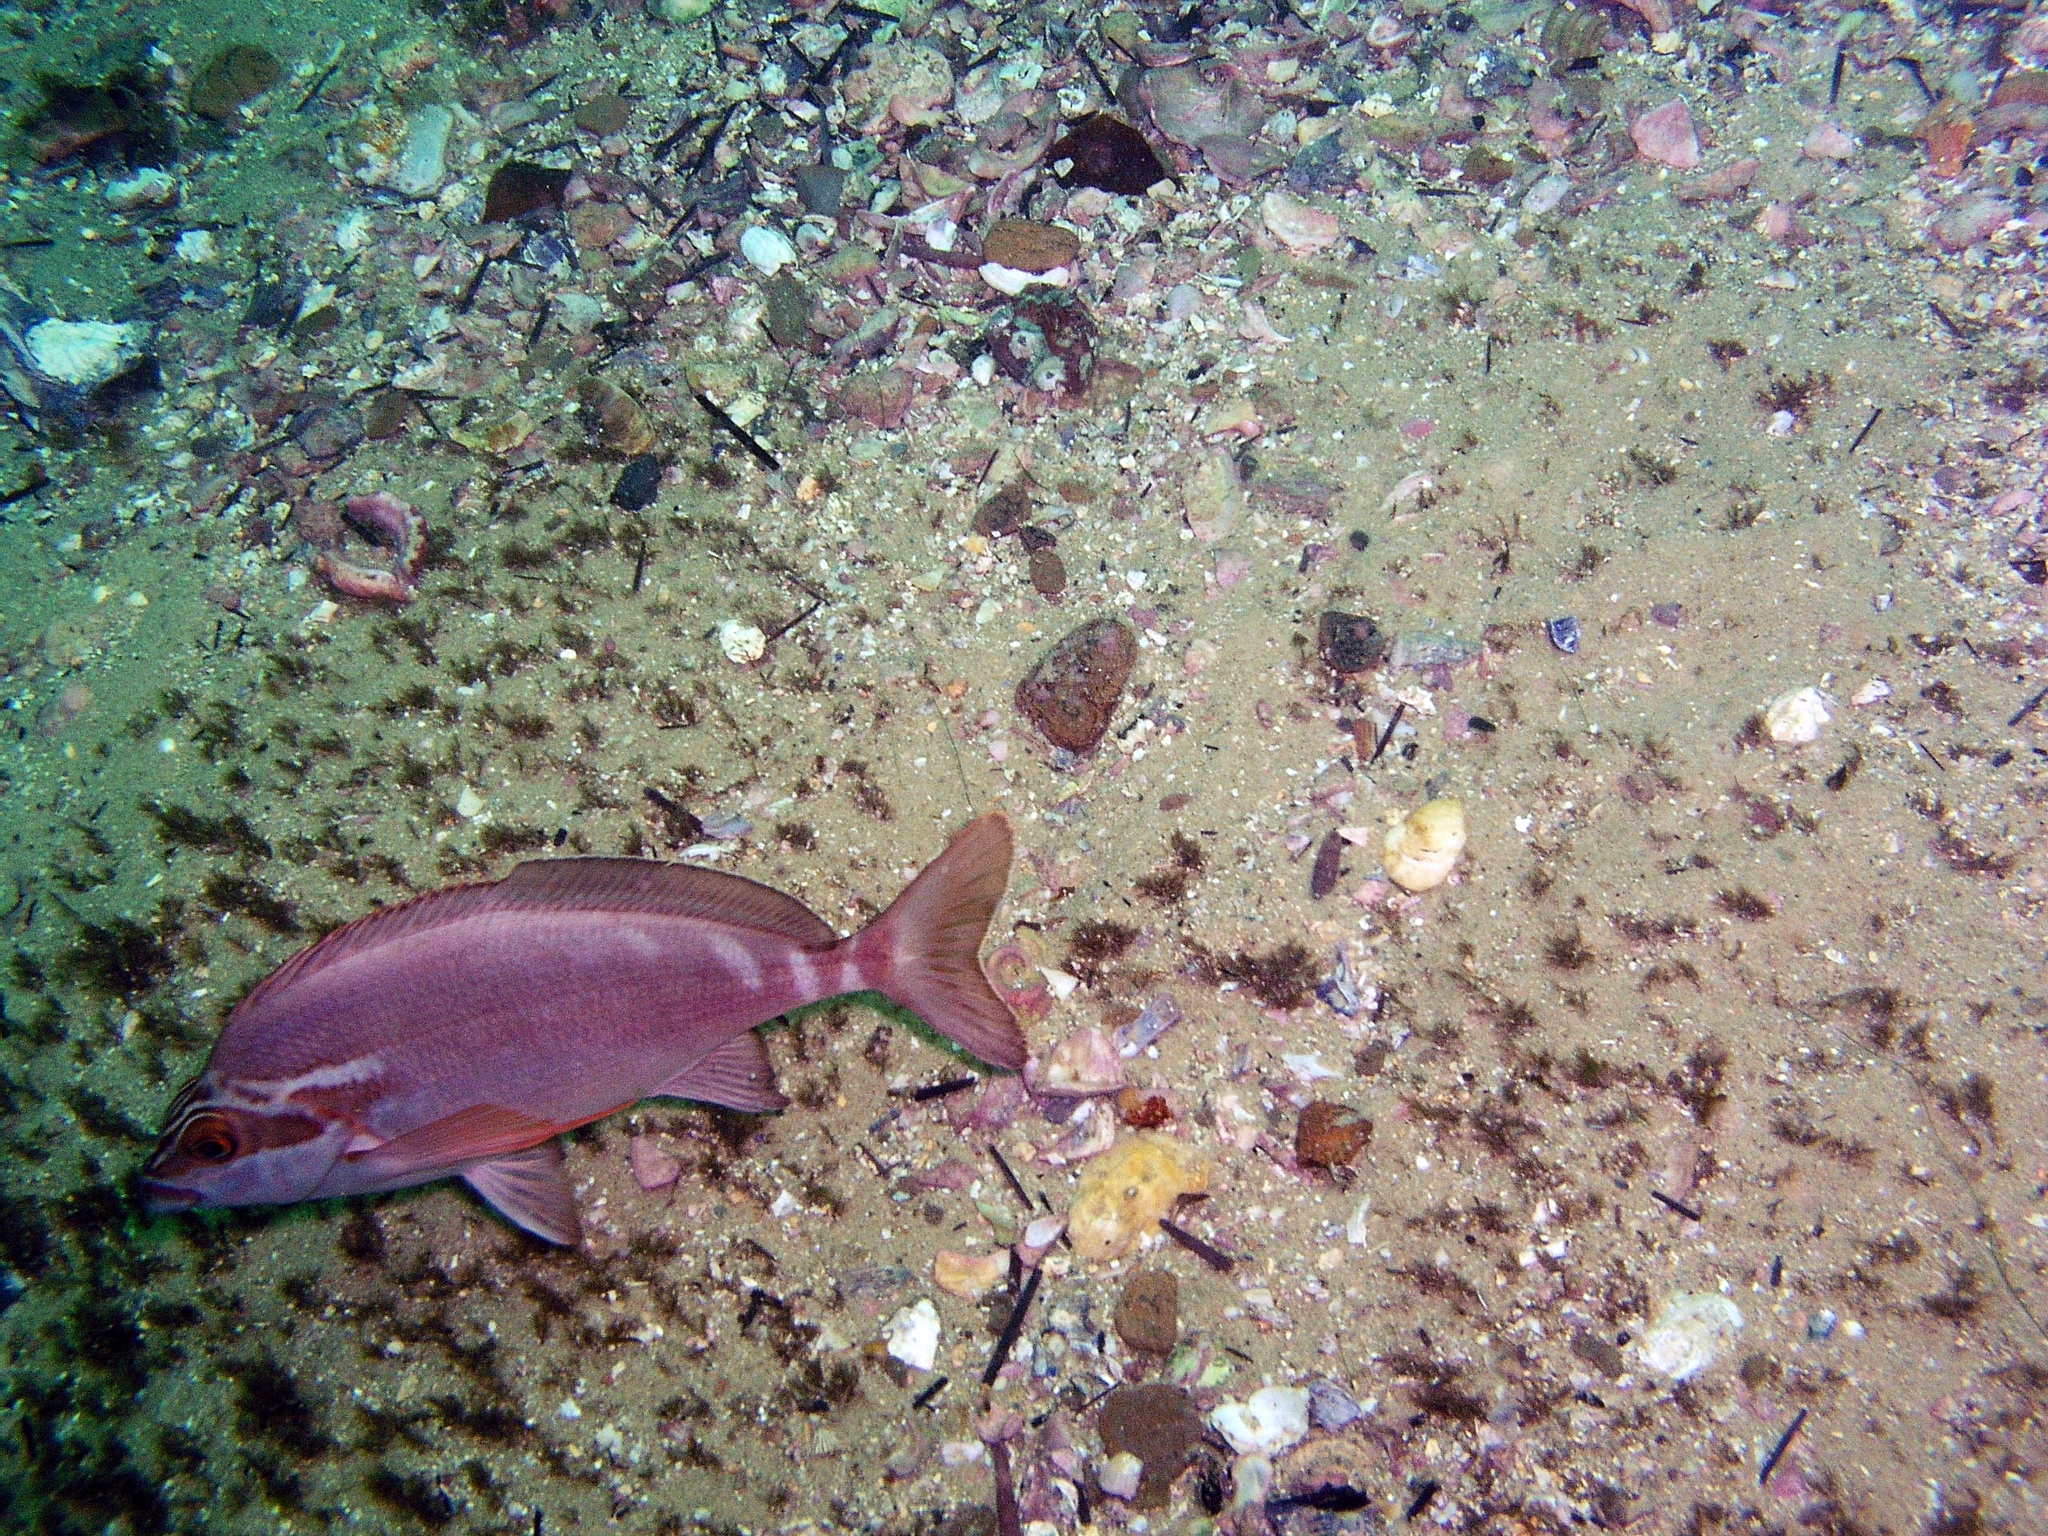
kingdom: Animalia
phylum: Chordata
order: Perciformes
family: Latridae
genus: Morwong
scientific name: Morwong fuscus
